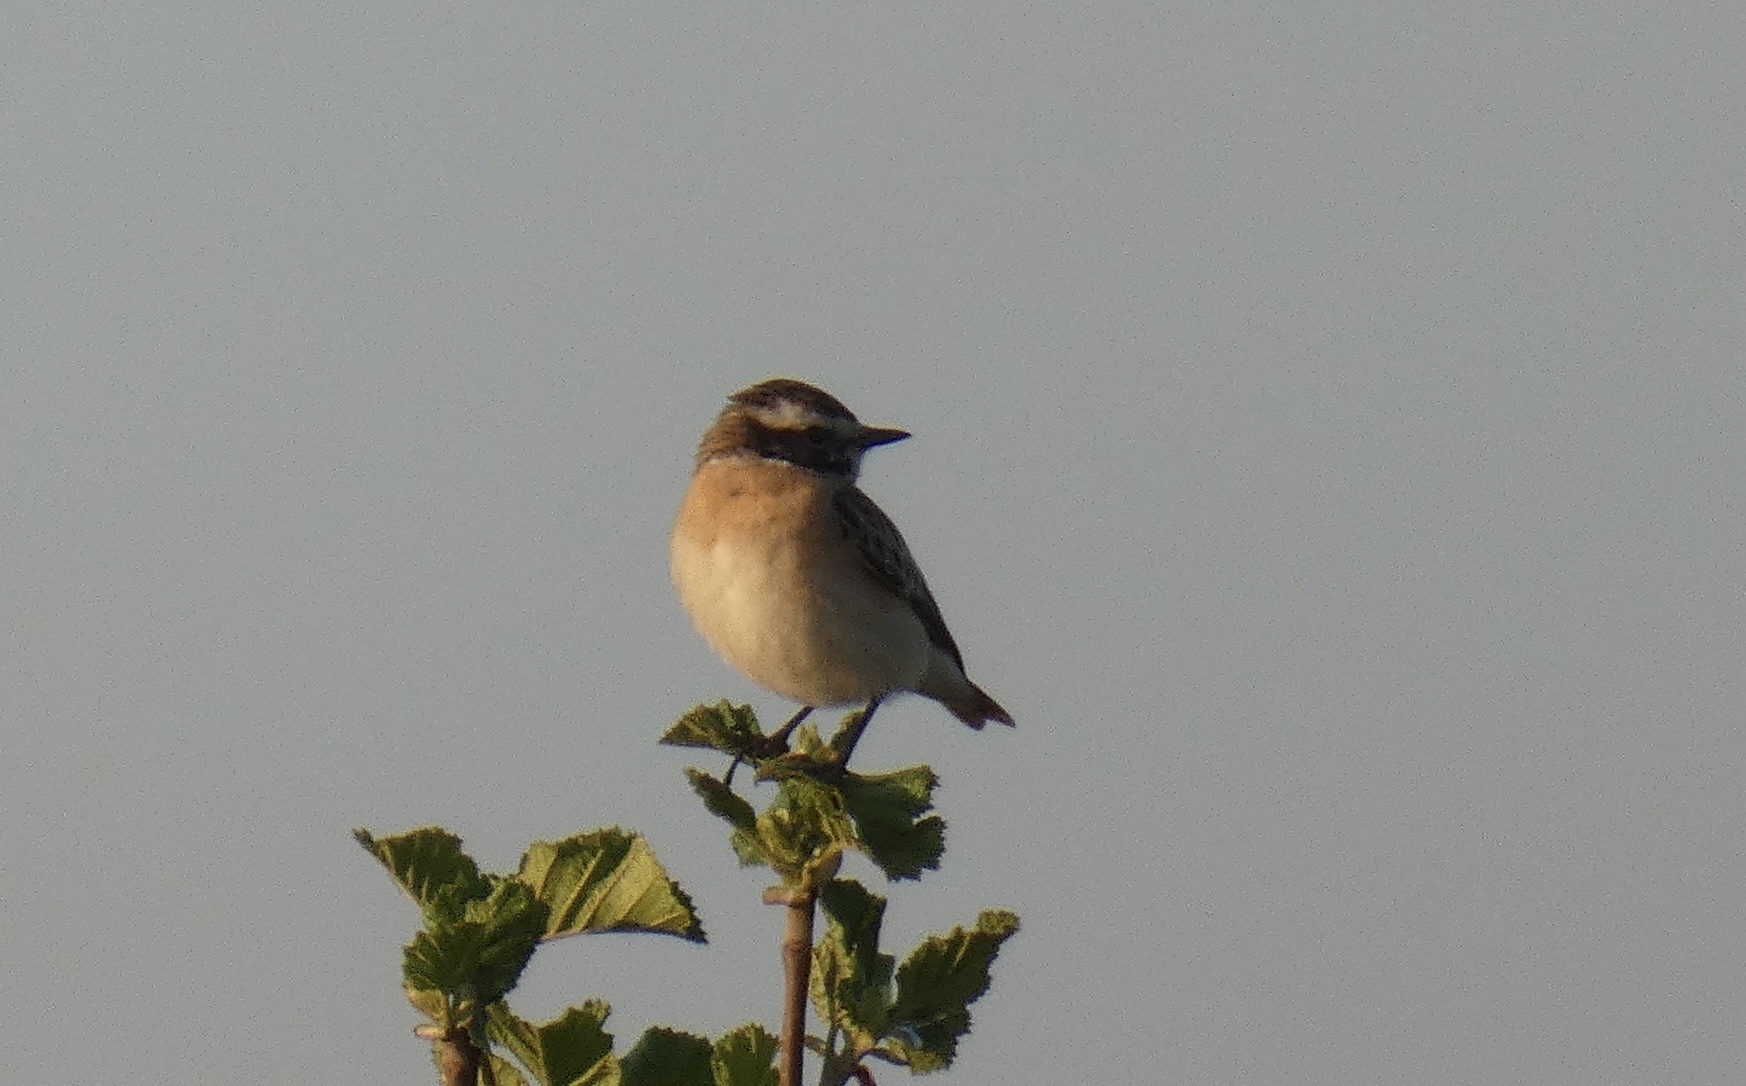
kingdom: Animalia
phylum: Chordata
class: Aves
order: Passeriformes
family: Muscicapidae
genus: Saxicola
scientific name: Saxicola rubetra
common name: Whinchat
